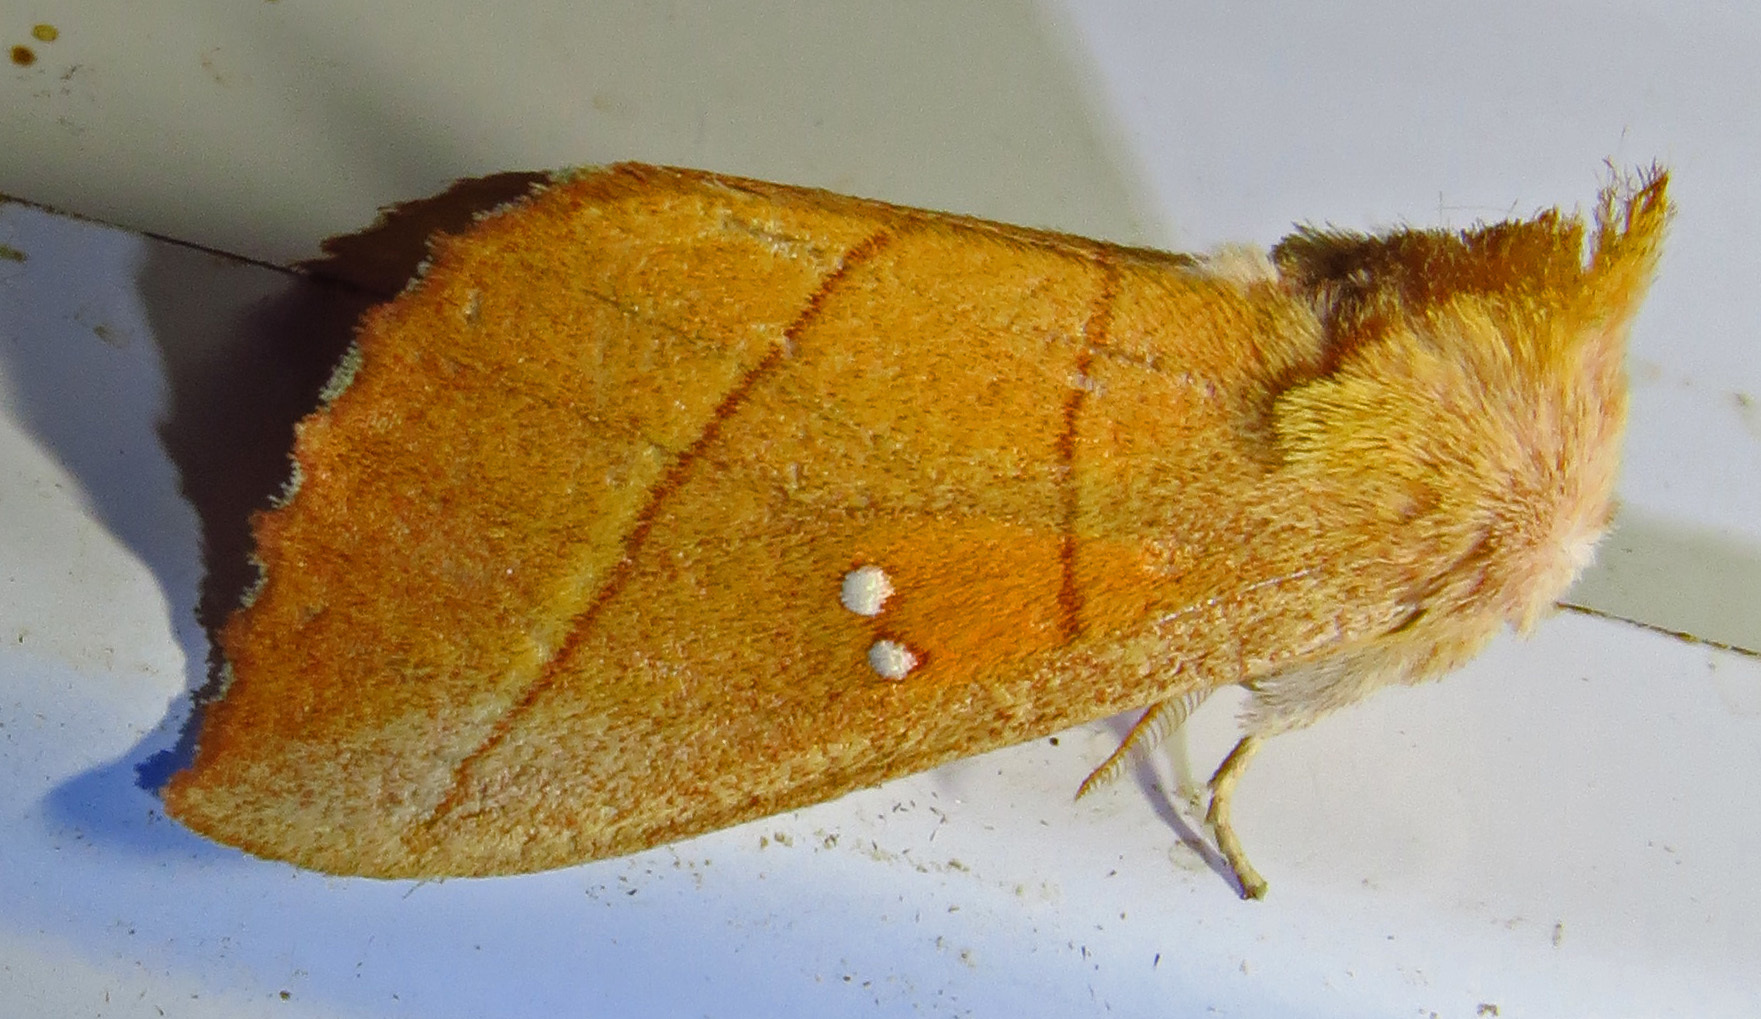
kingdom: Animalia
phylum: Arthropoda
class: Insecta
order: Lepidoptera
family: Notodontidae
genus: Nadata
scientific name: Nadata gibbosa
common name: White-dotted prominent
